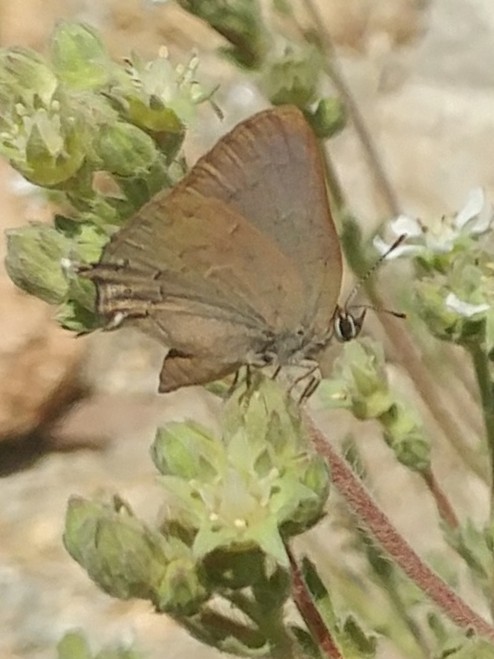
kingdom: Animalia
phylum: Arthropoda
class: Insecta
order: Lepidoptera
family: Lycaenidae
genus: Strymon
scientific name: Strymon saepium
